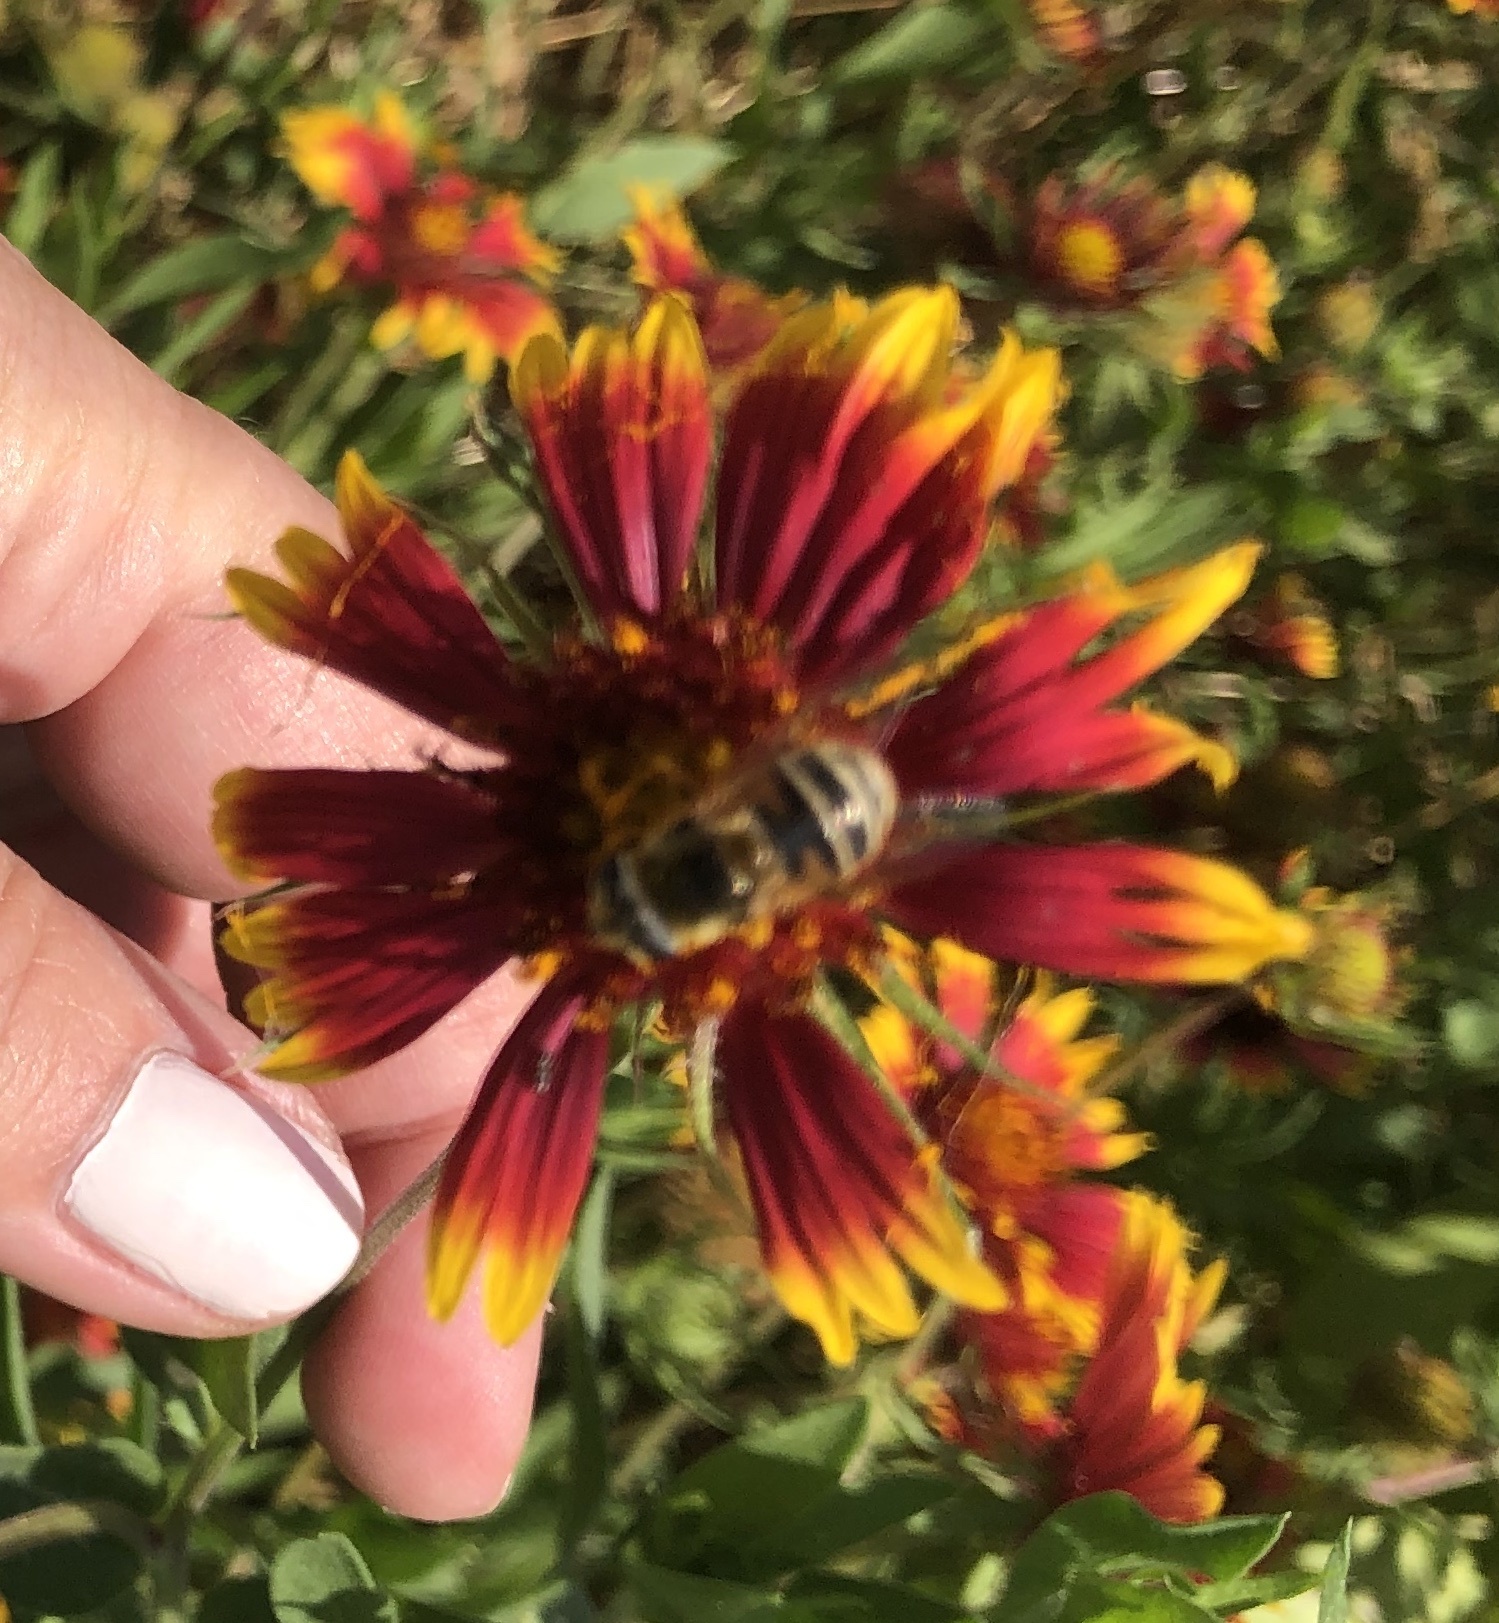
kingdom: Animalia
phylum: Arthropoda
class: Insecta
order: Diptera
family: Syrphidae
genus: Eristalis
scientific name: Eristalis stipator
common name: Yellow-shouldered drone fly
